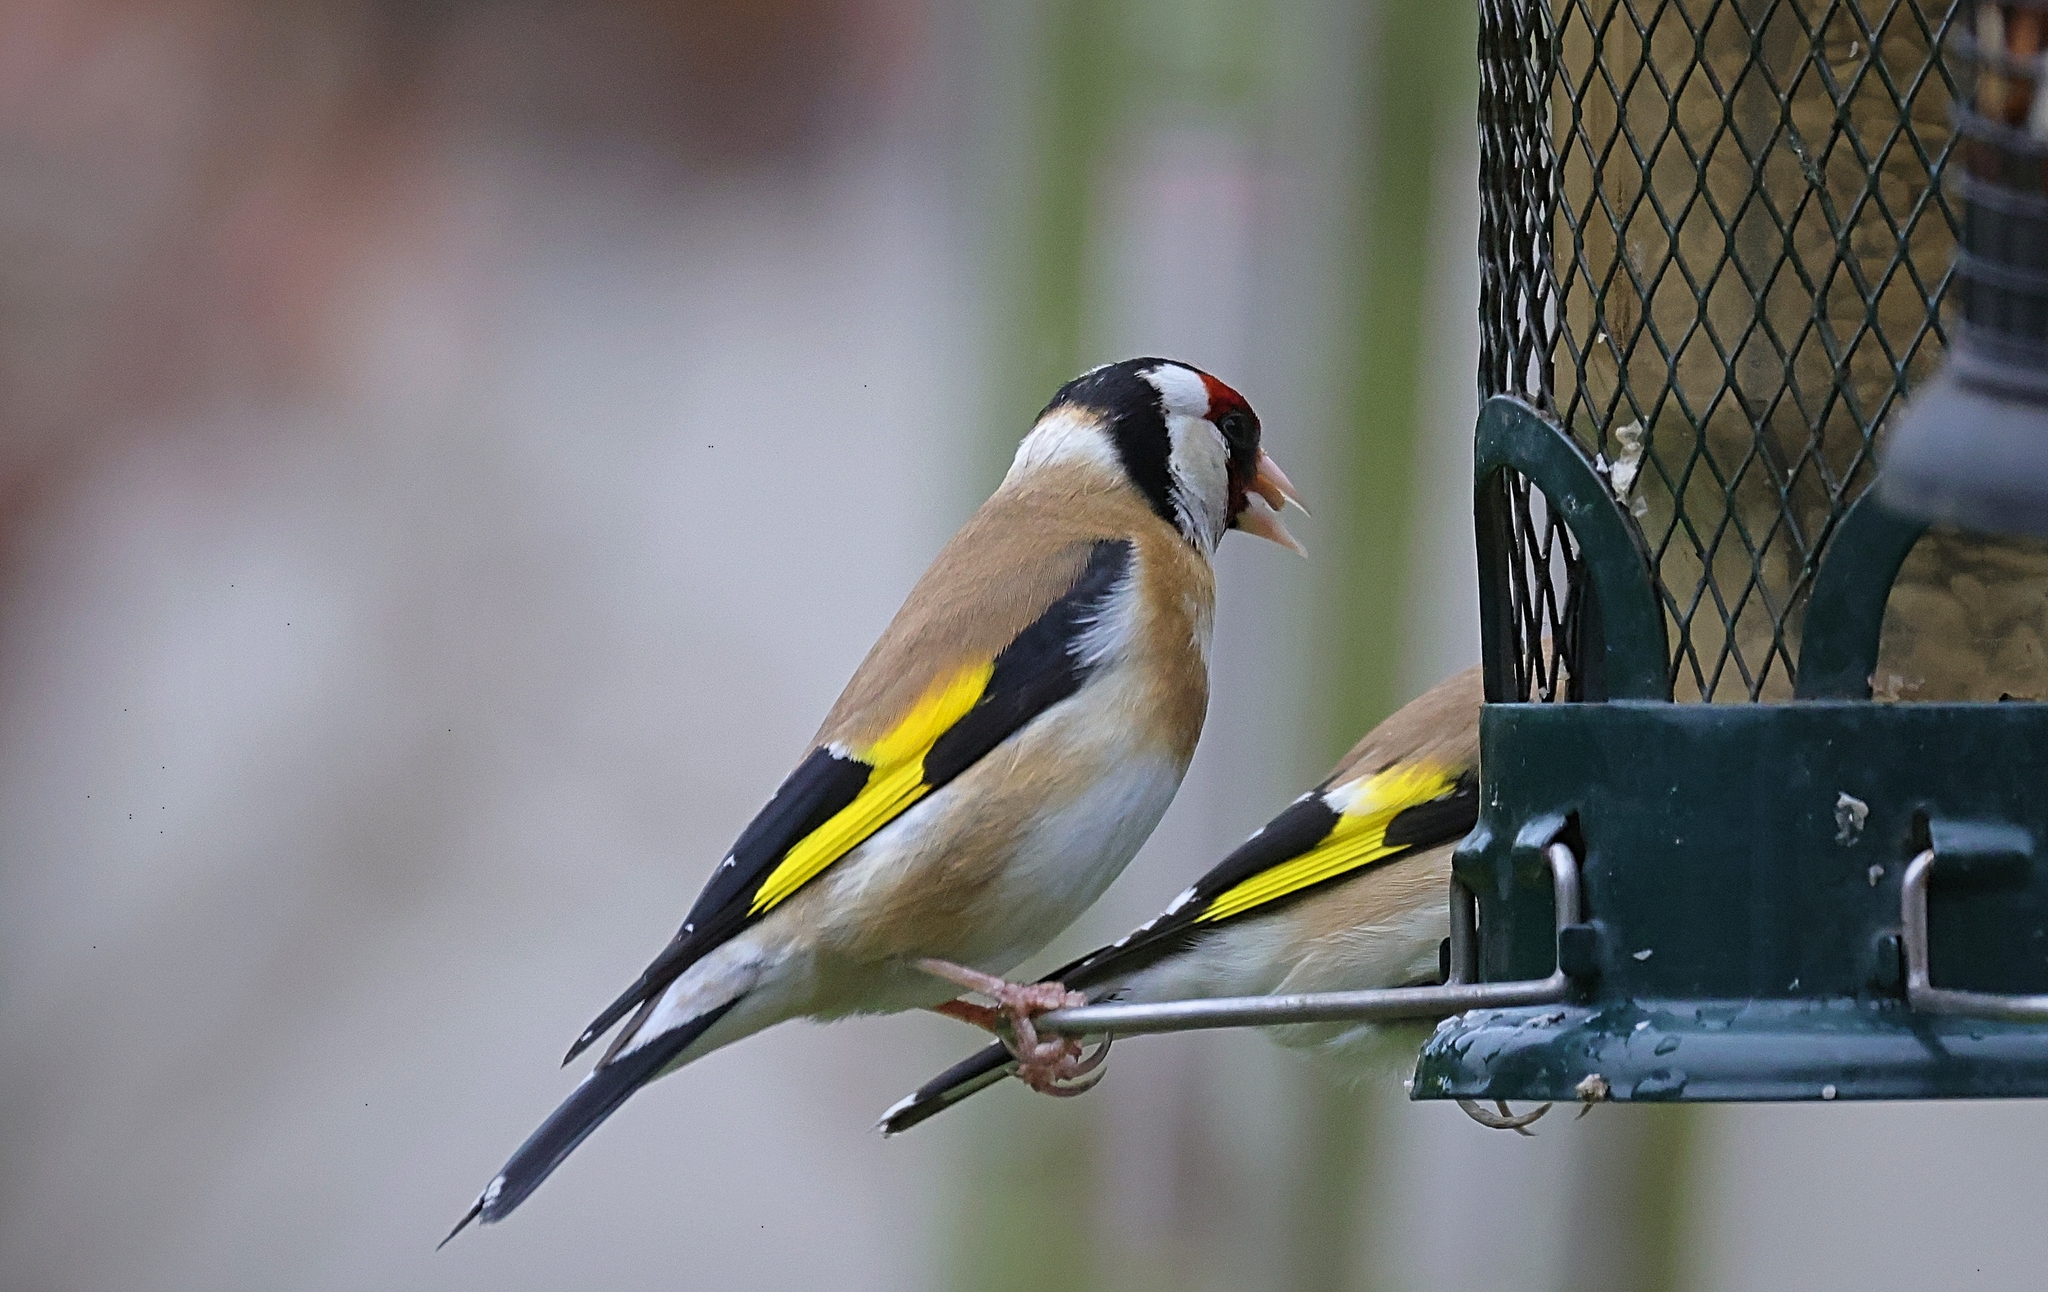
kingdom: Animalia
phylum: Chordata
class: Aves
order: Passeriformes
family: Fringillidae
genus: Carduelis
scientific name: Carduelis carduelis
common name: European goldfinch
